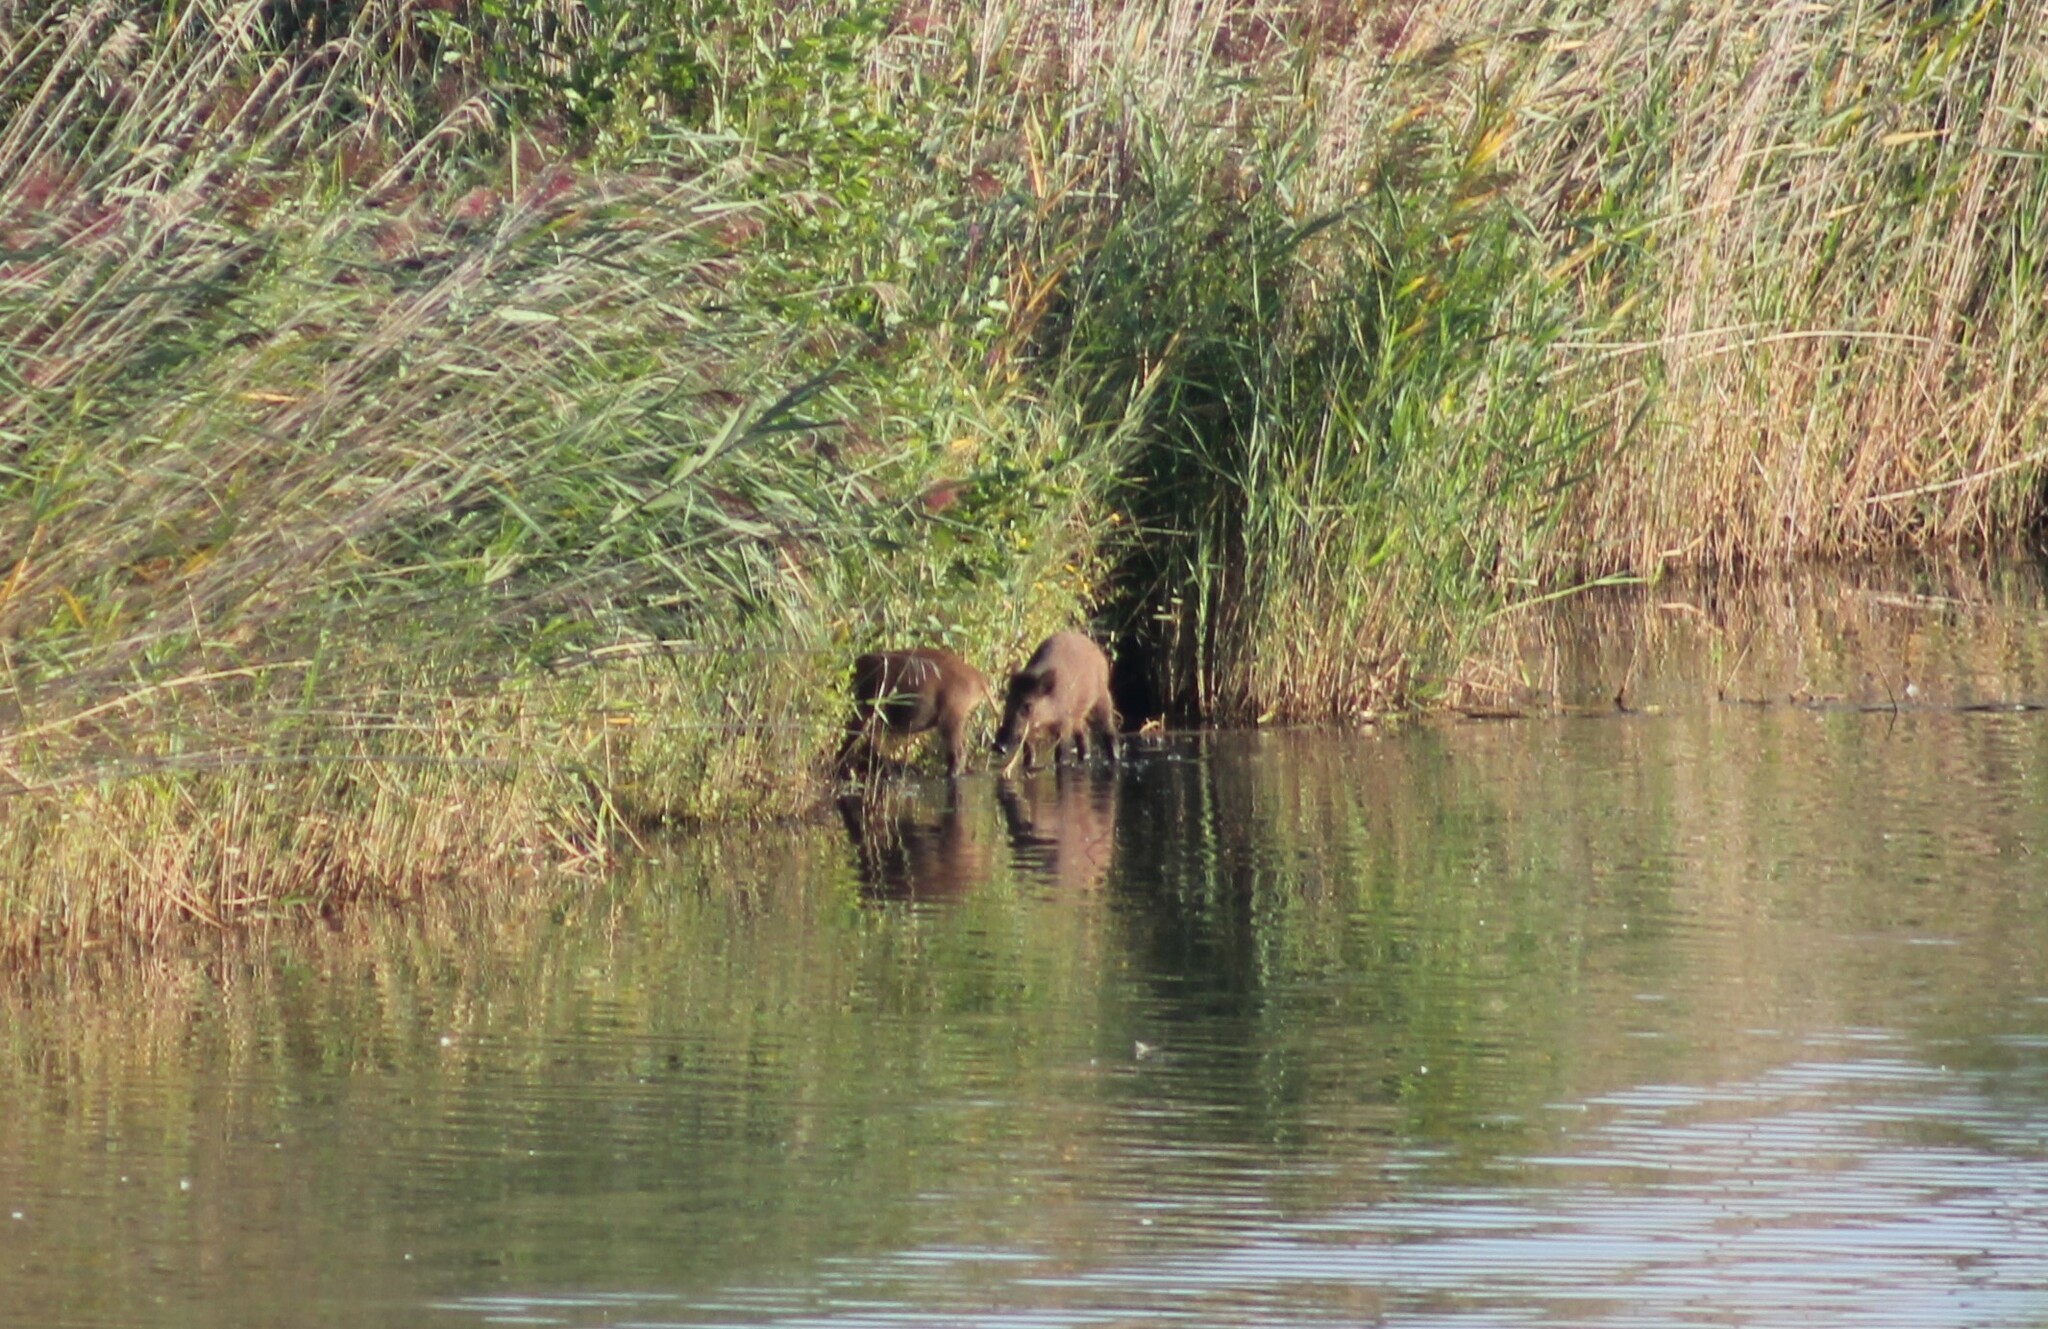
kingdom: Animalia
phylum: Chordata
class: Mammalia
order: Artiodactyla
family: Suidae
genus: Sus
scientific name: Sus scrofa
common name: Wild boar
